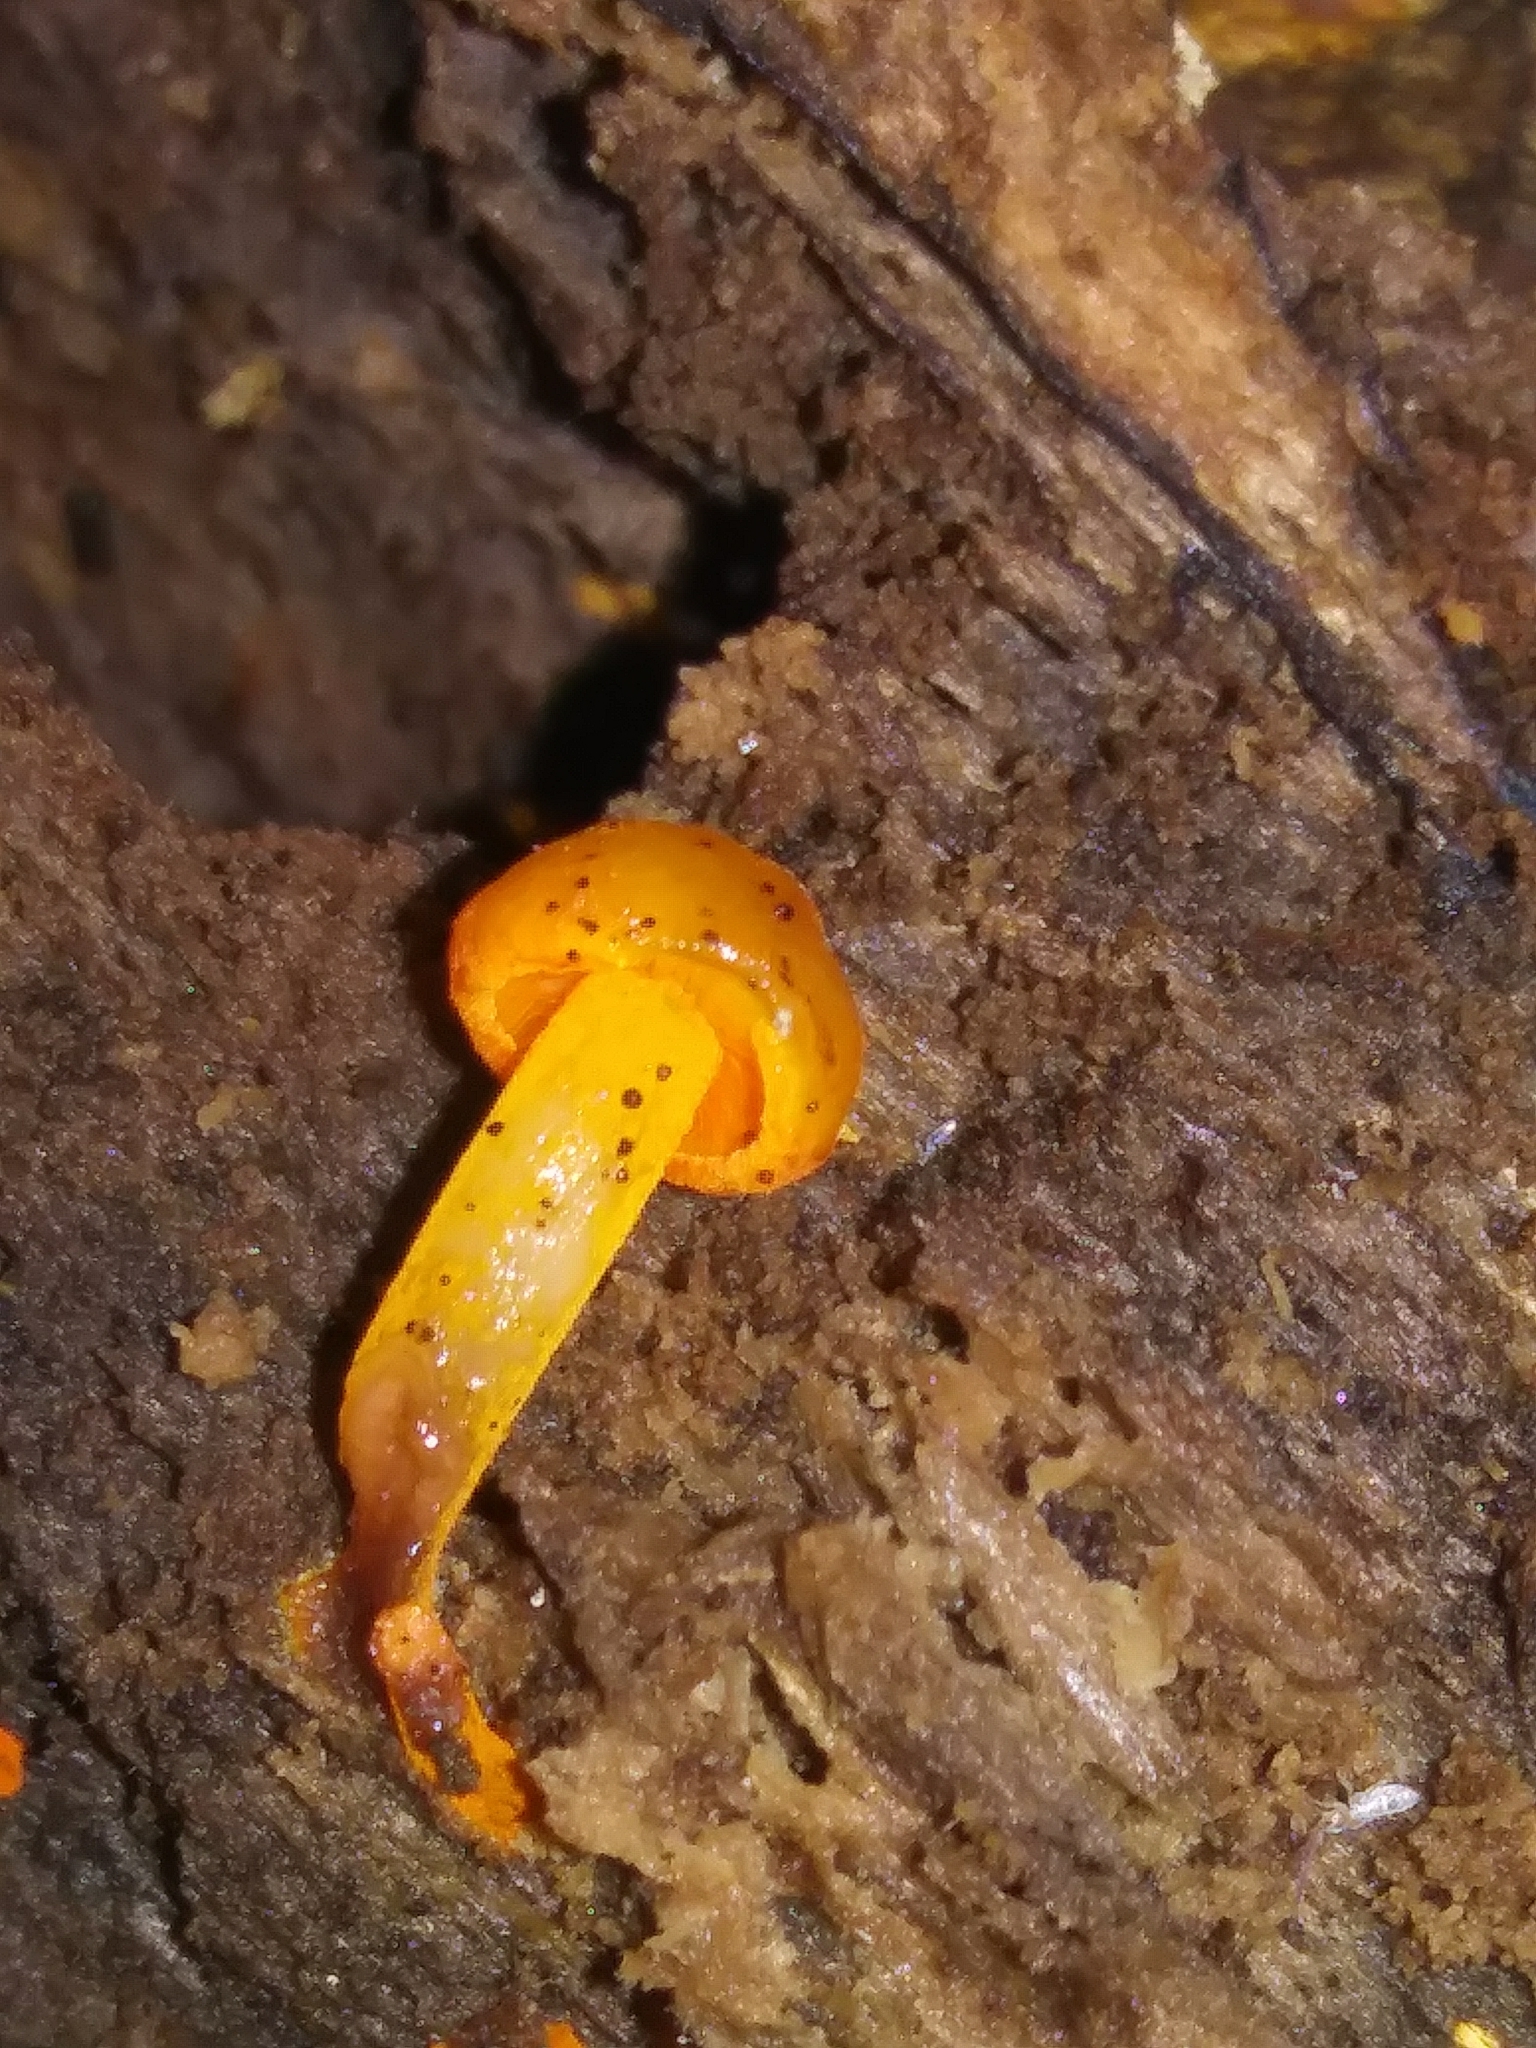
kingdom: Fungi
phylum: Basidiomycota
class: Agaricomycetes
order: Agaricales
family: Mycenaceae
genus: Mycena
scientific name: Mycena leaiana
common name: Orange mycena
